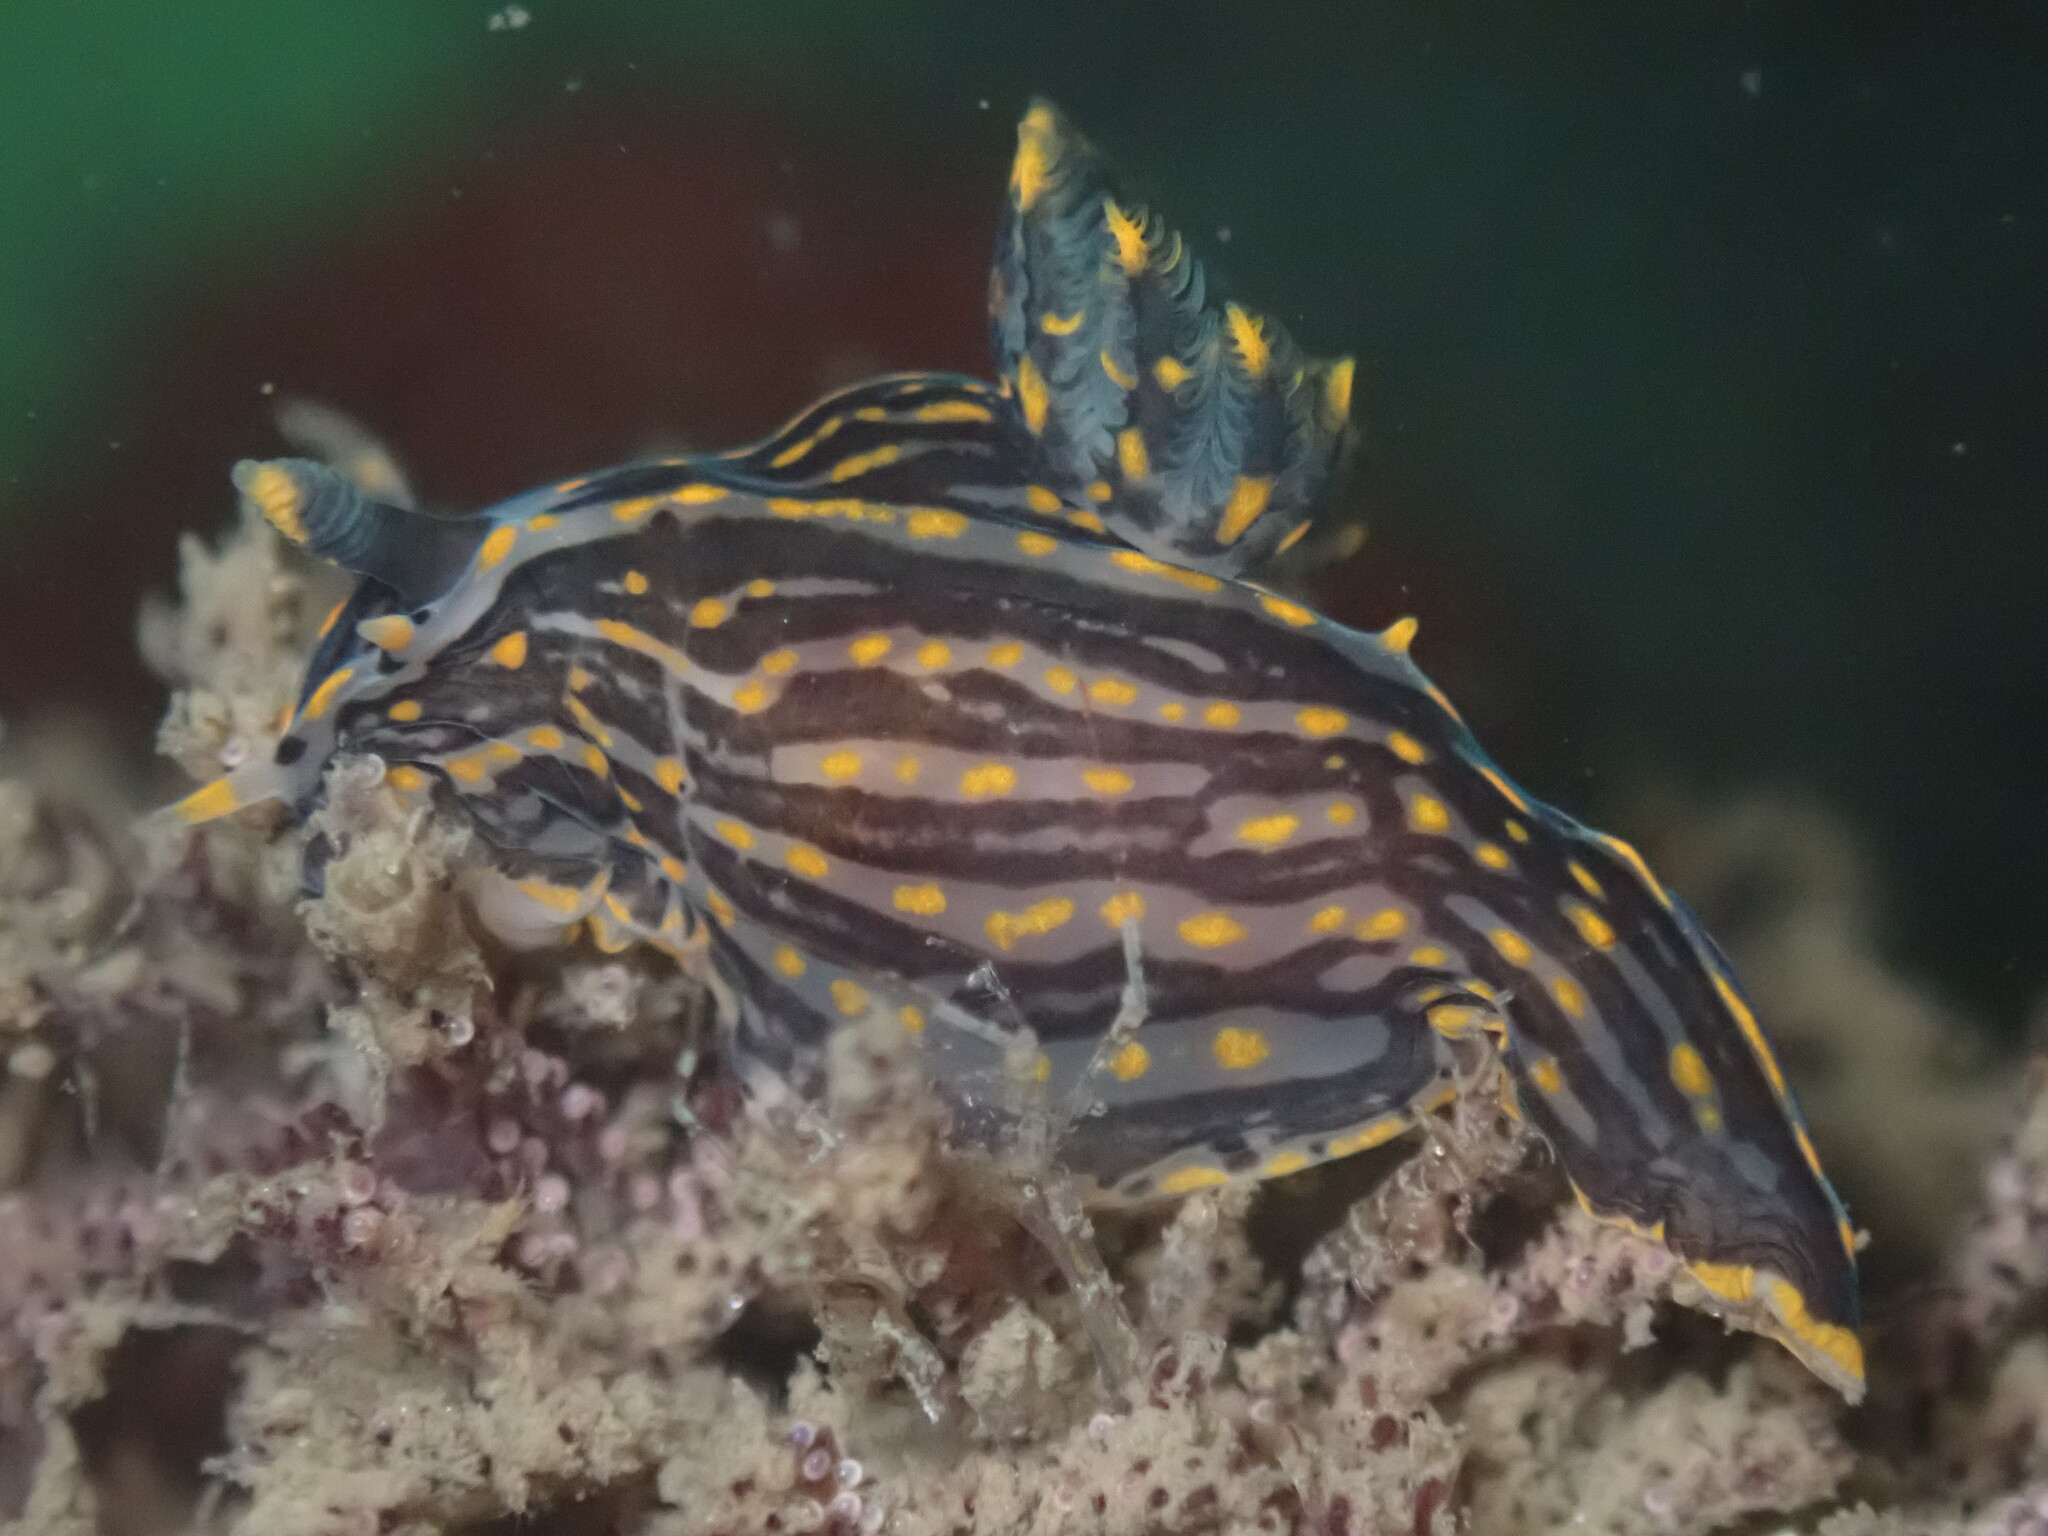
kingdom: Animalia
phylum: Mollusca
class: Gastropoda
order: Nudibranchia
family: Polyceridae
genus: Polycera
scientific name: Polycera atra
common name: Orange-spike polycera
